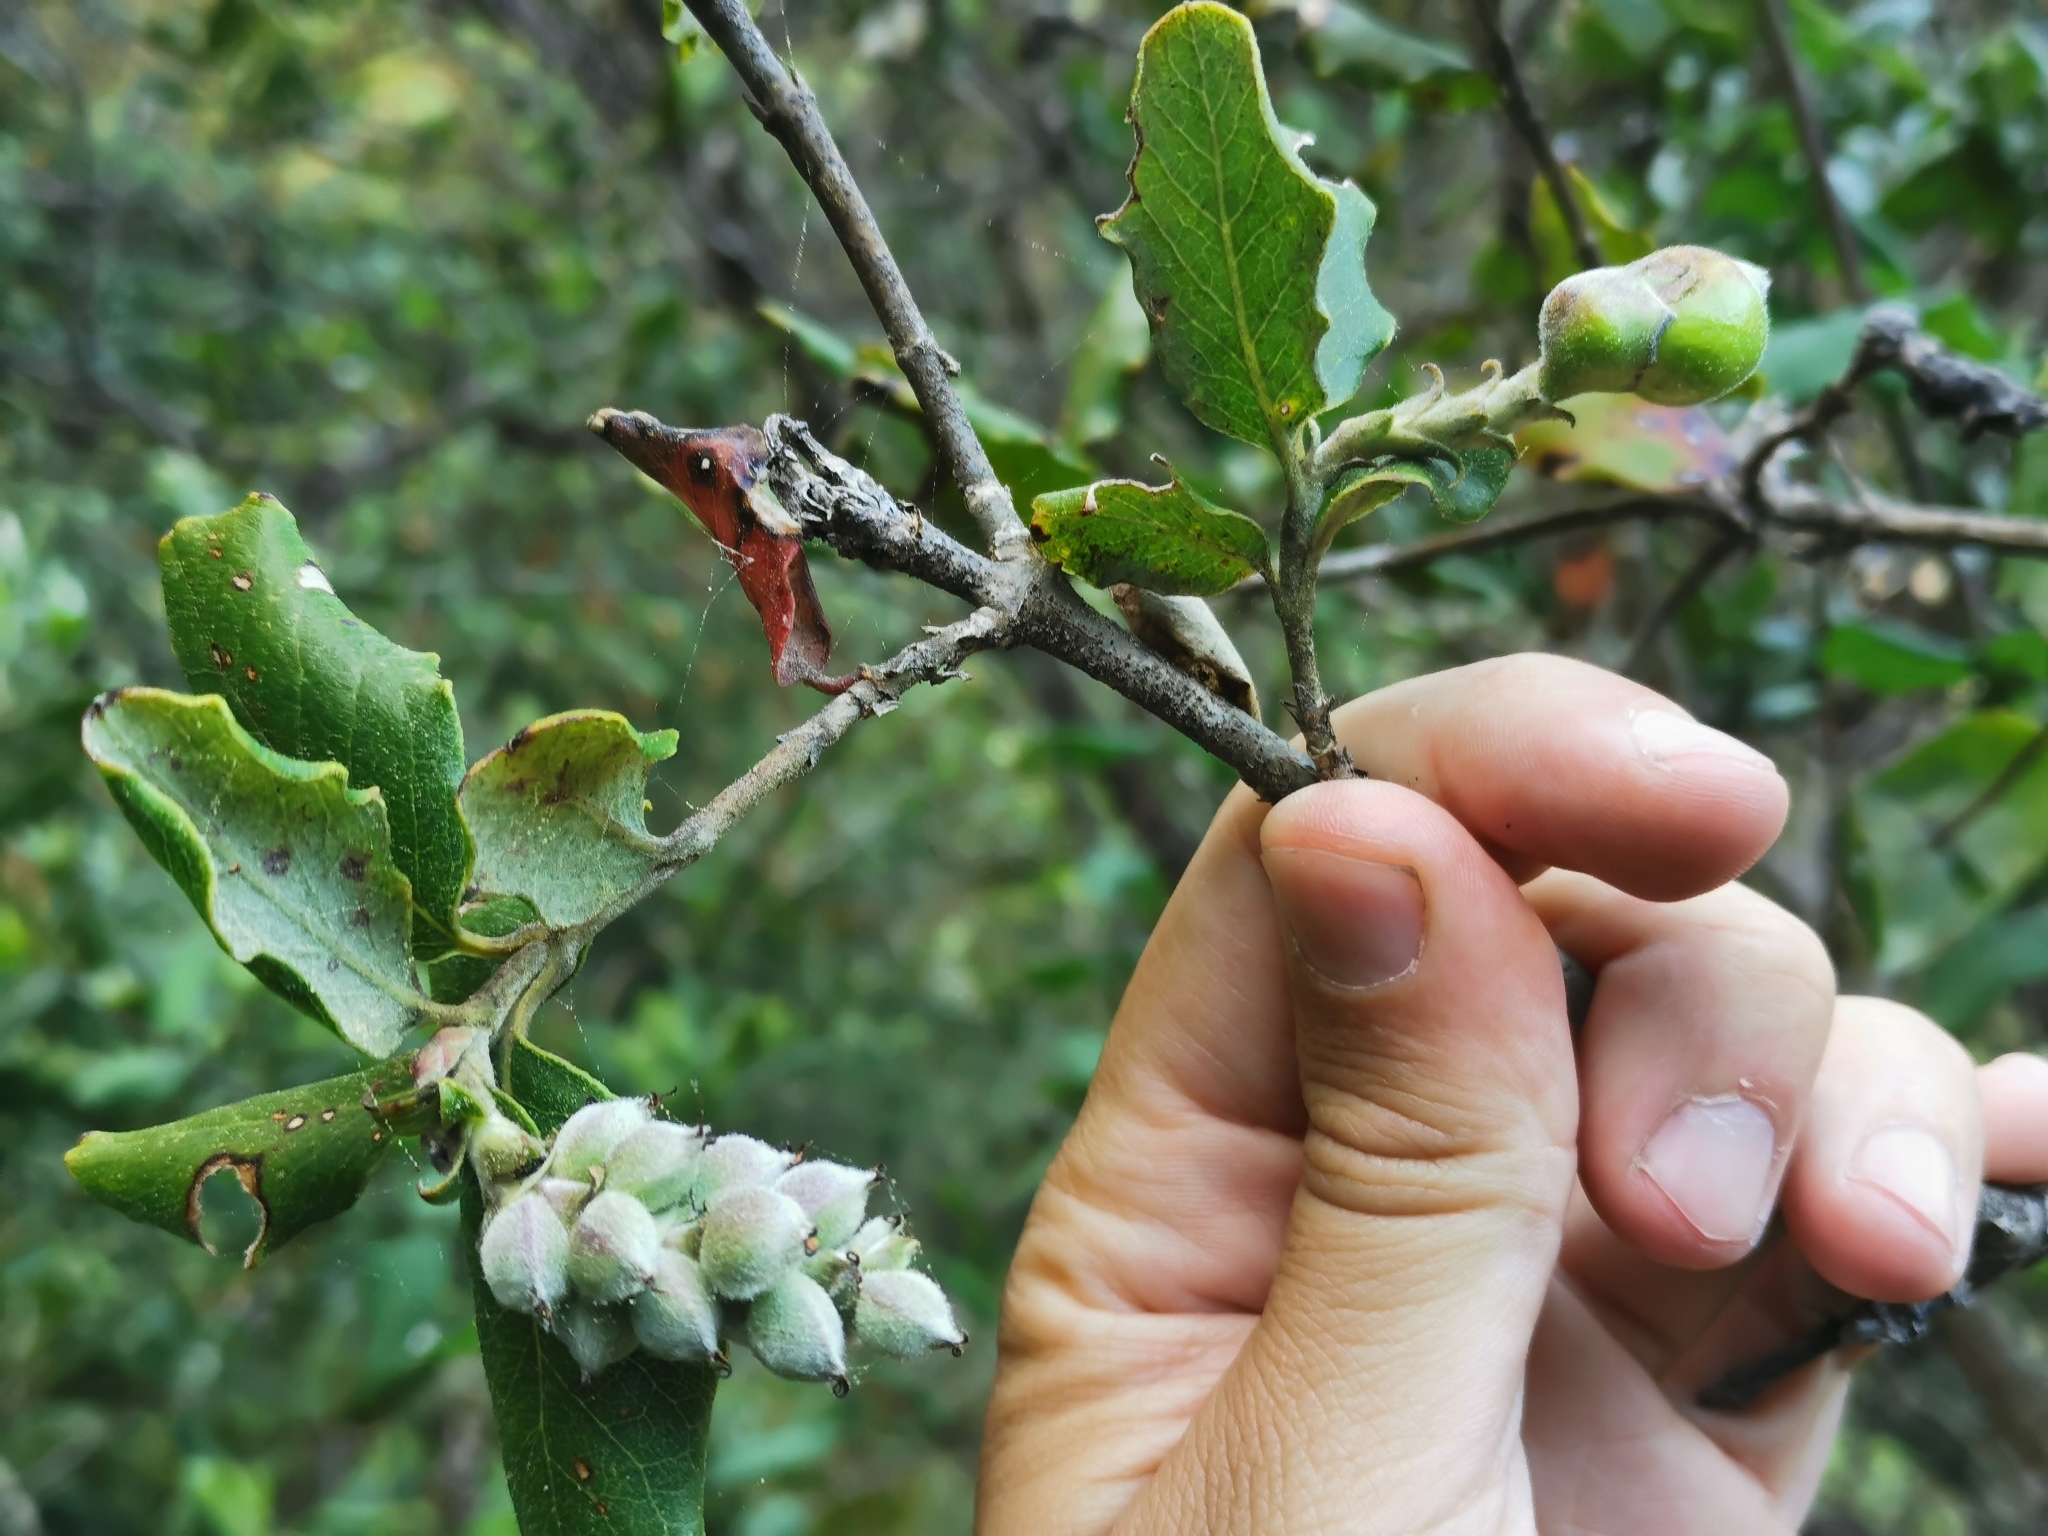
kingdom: Plantae
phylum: Tracheophyta
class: Magnoliopsida
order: Garryales
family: Garryaceae
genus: Garrya
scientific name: Garrya elliptica
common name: Silk-tassel
